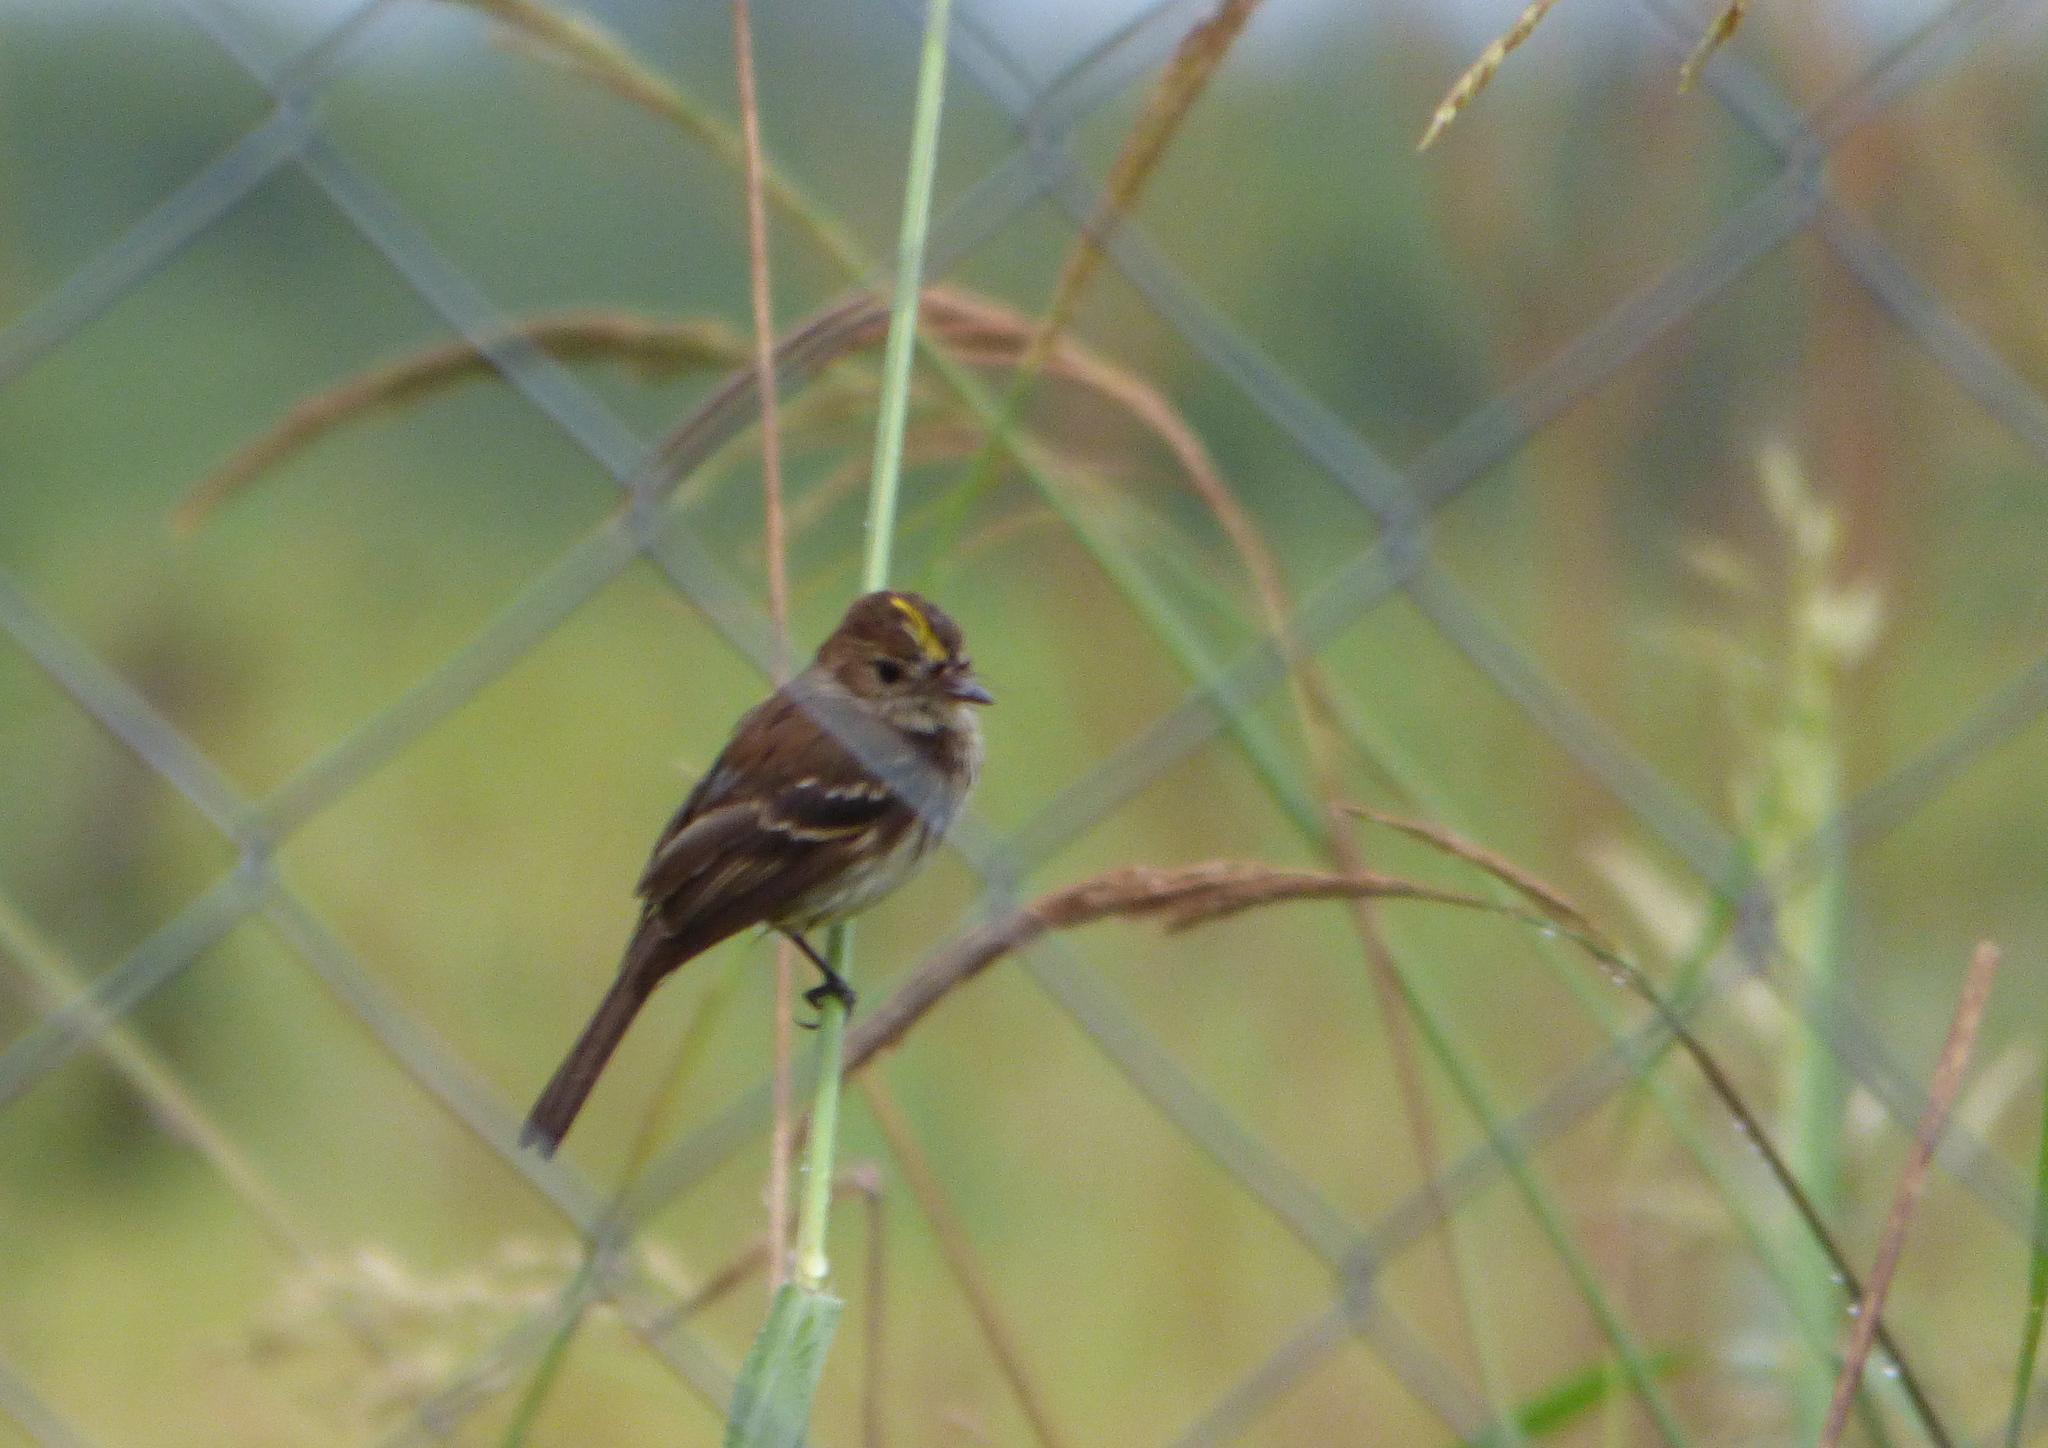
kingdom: Animalia
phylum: Chordata
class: Aves
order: Passeriformes
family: Tyrannidae
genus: Myiophobus
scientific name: Myiophobus fasciatus
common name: Bran-colored flycatcher
